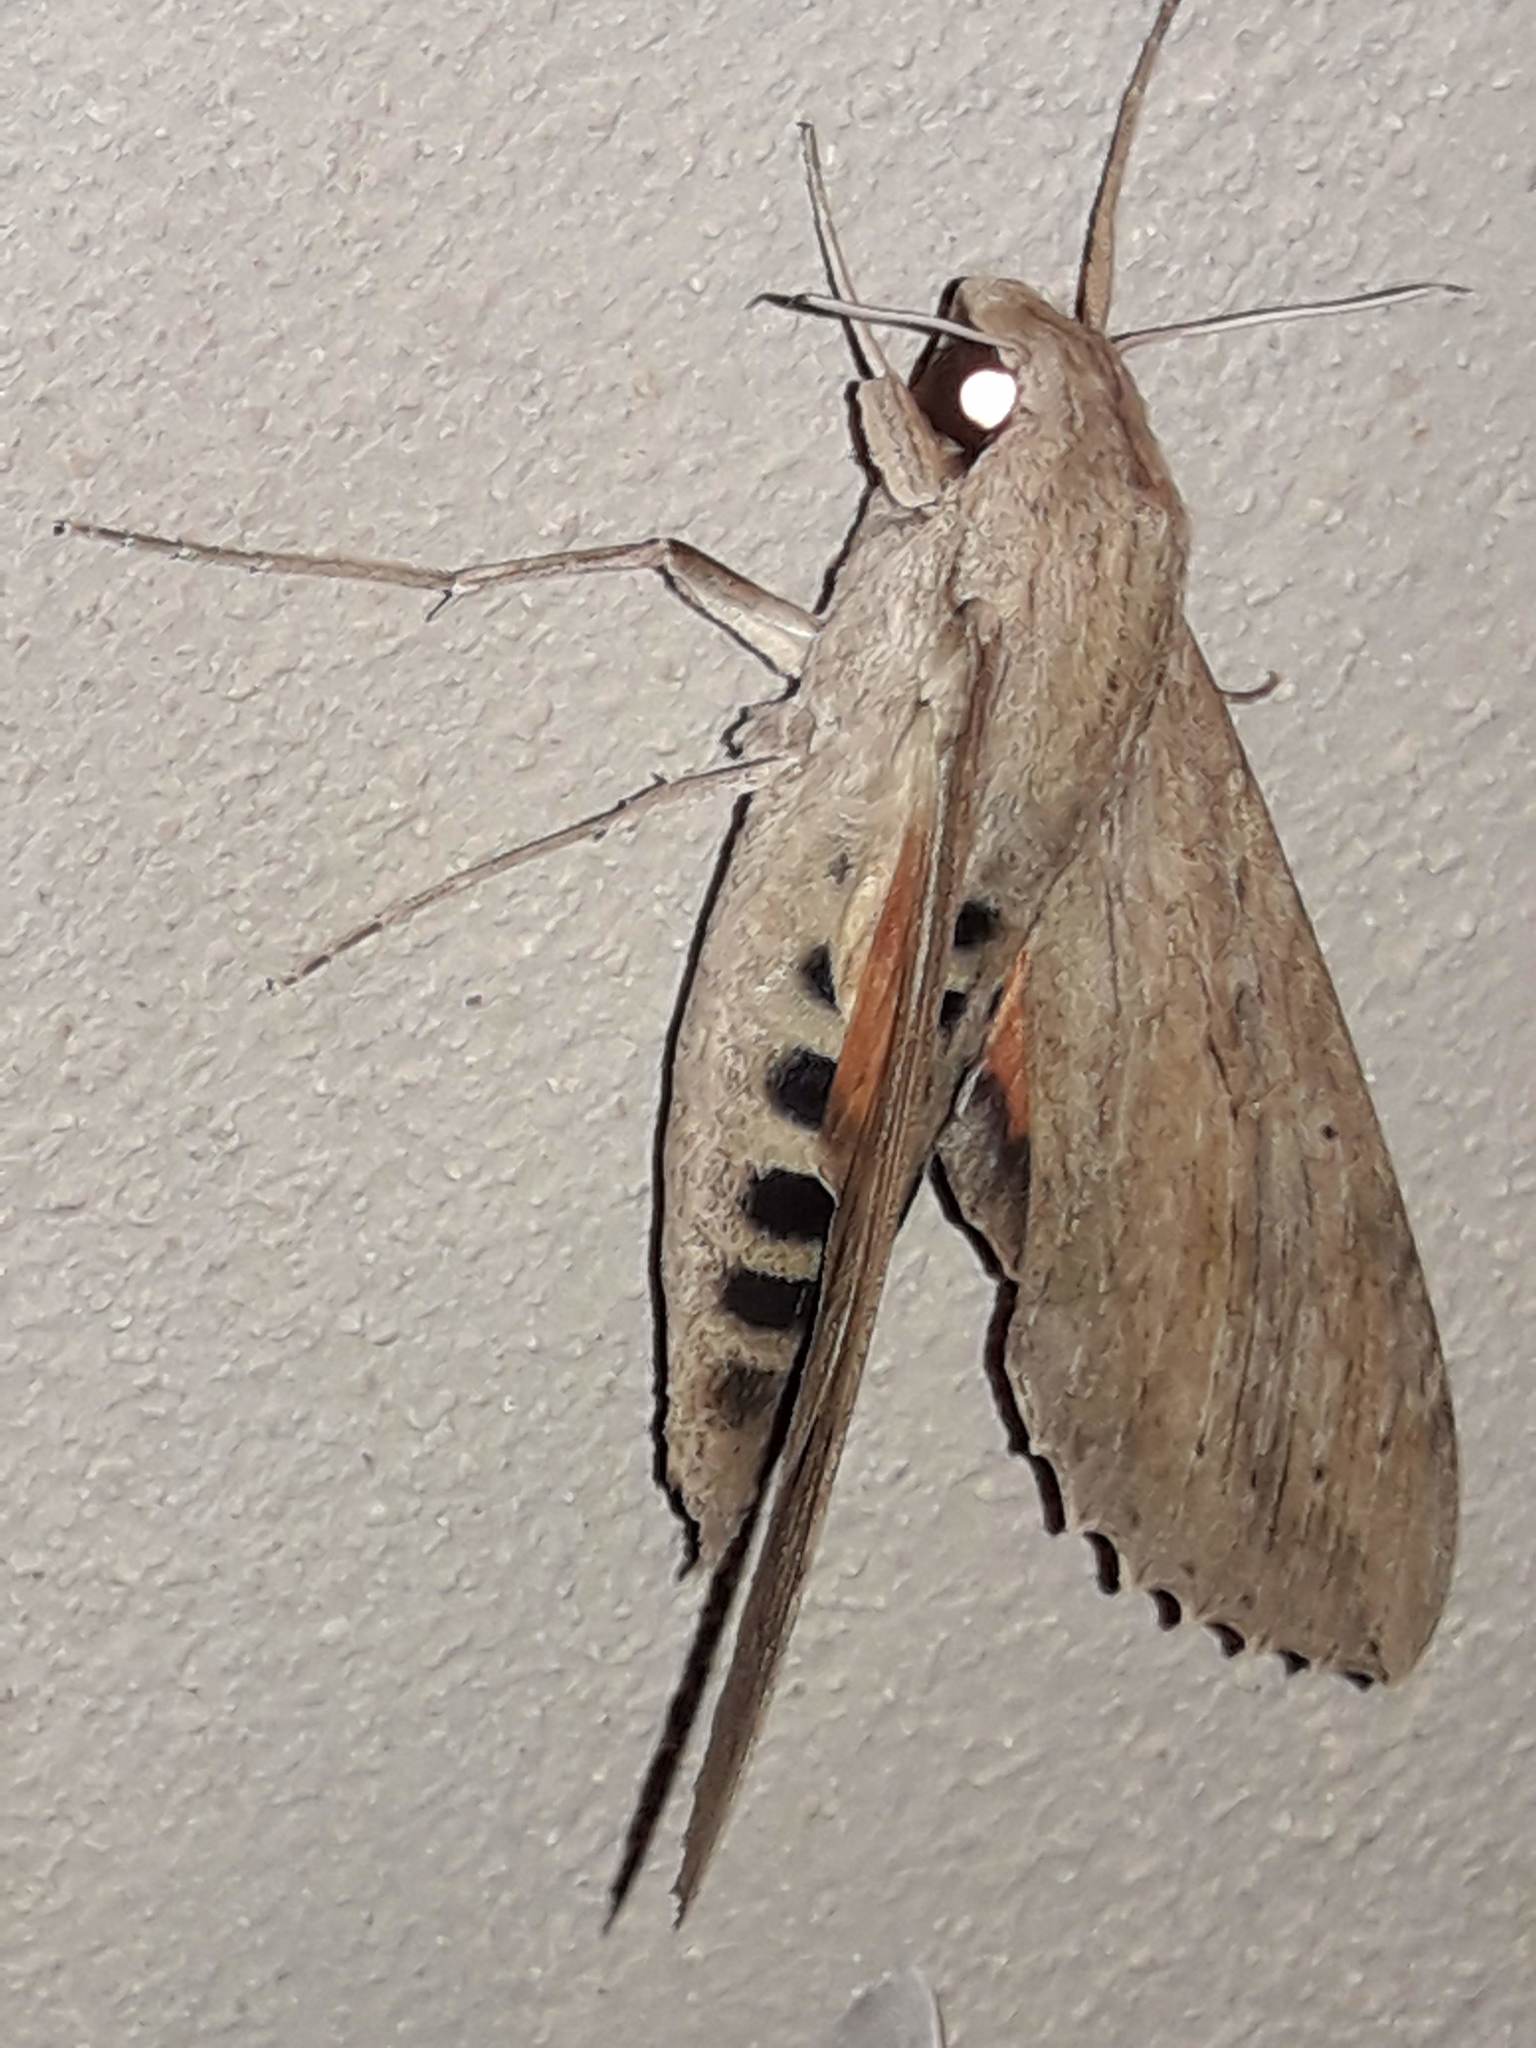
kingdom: Animalia
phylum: Arthropoda
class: Insecta
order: Lepidoptera
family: Sphingidae
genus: Erinnyis
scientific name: Erinnyis ello
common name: Ello sphinx
